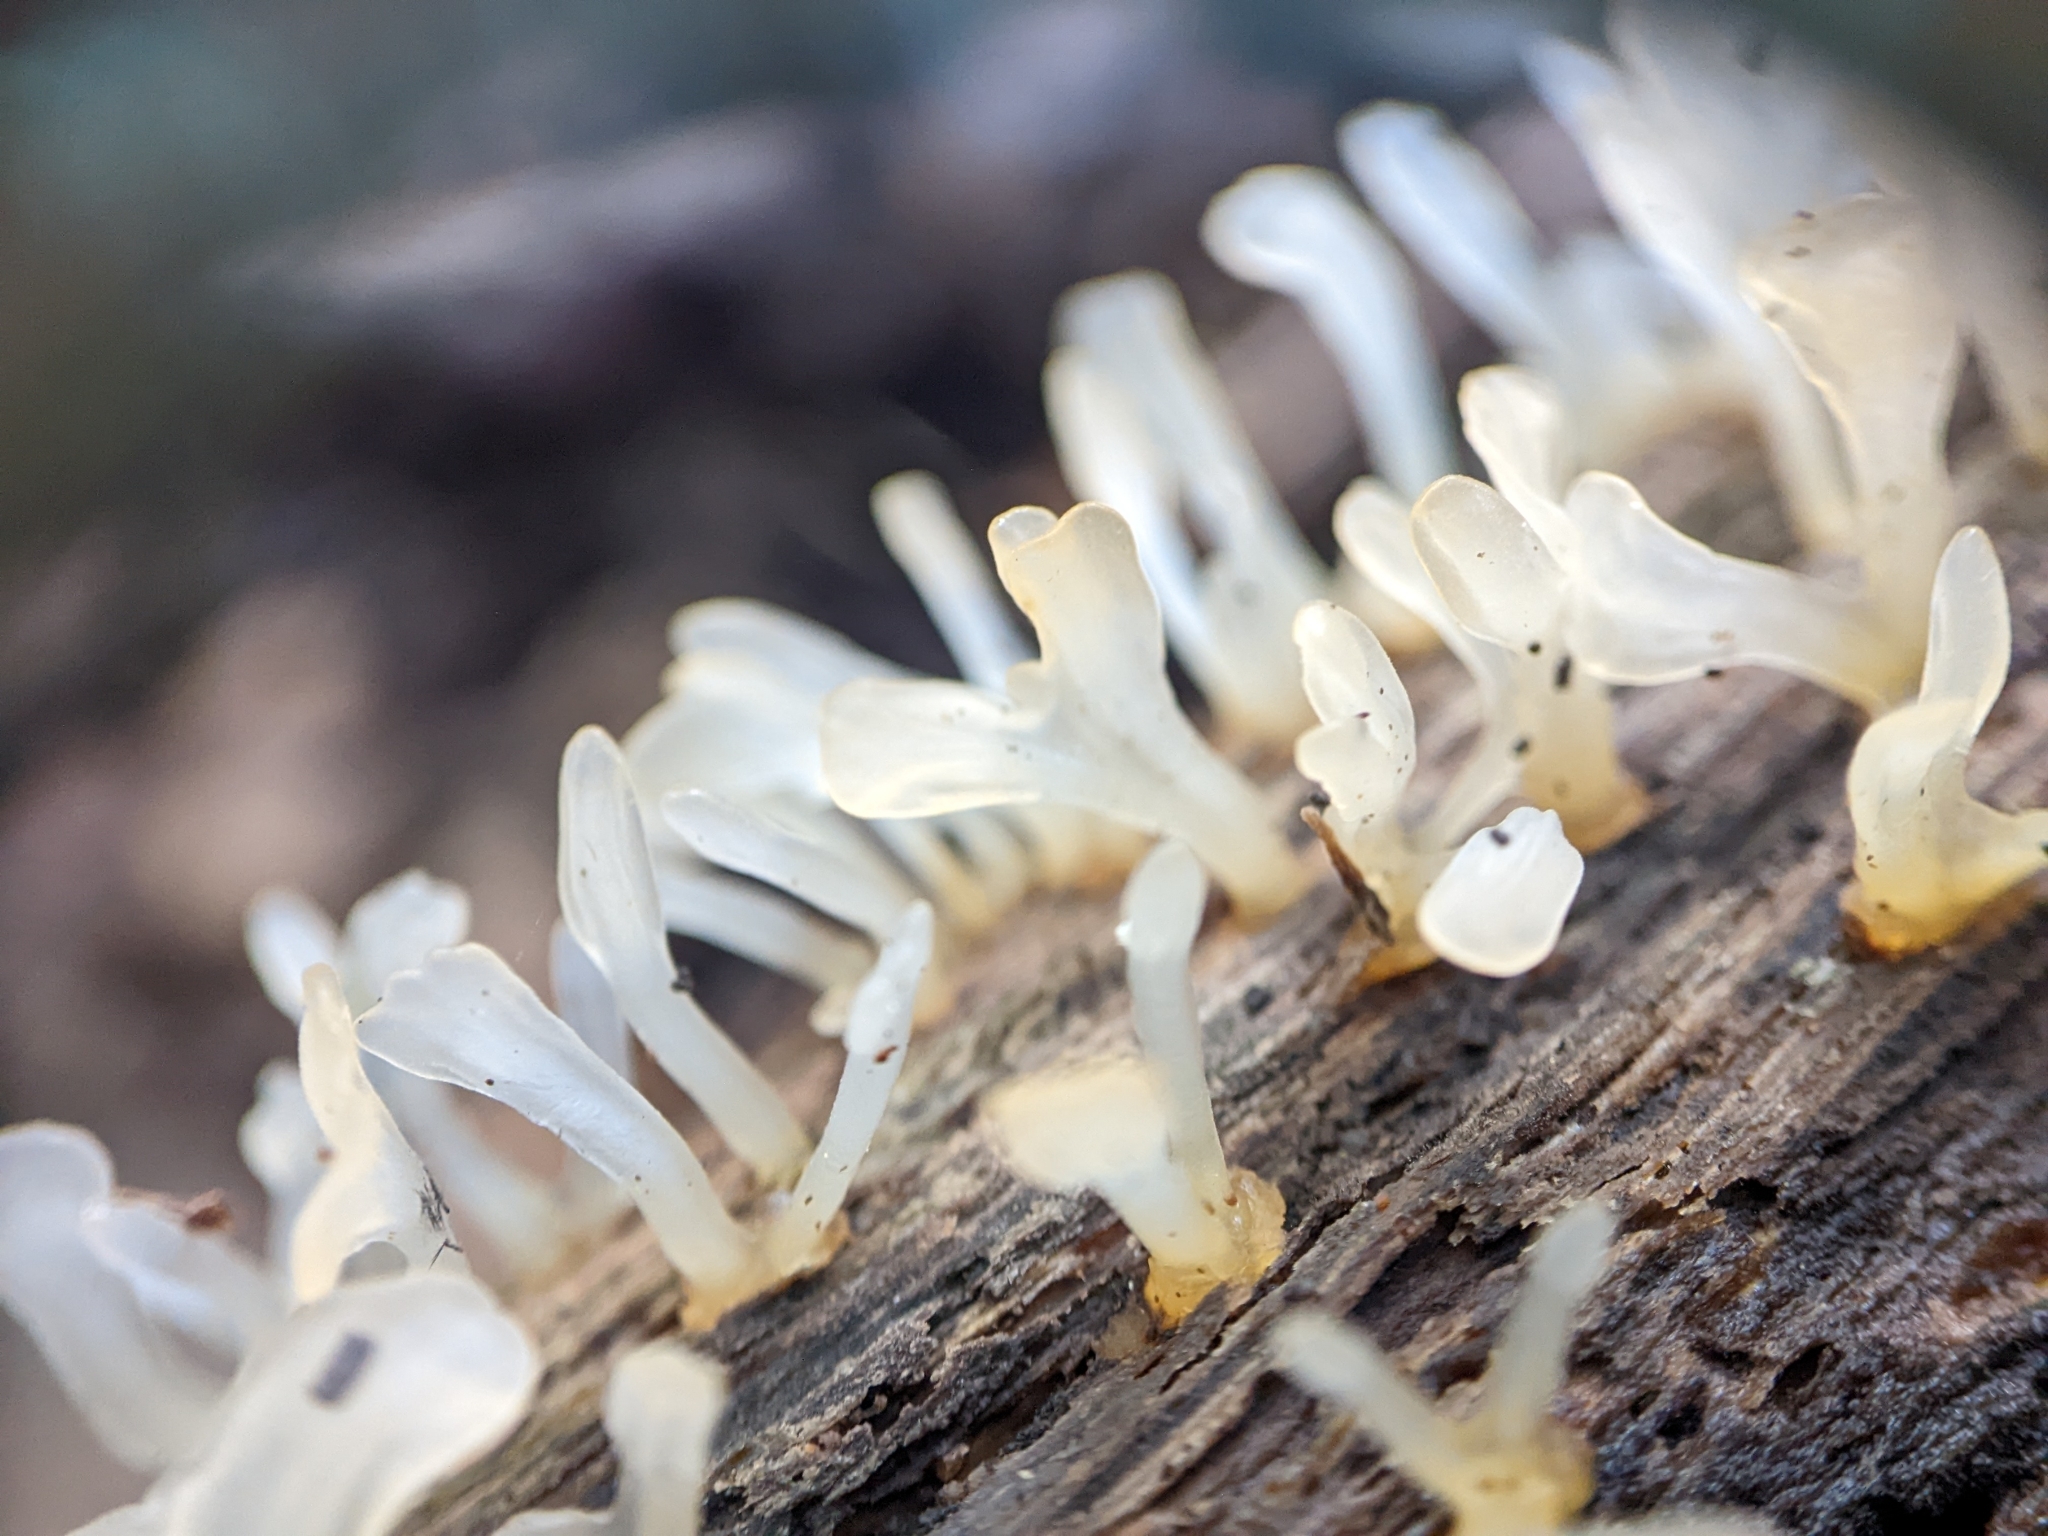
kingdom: Fungi
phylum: Basidiomycota
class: Dacrymycetes
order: Dacrymycetales
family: Dacrymycetaceae
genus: Calocera
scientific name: Calocera pallidospathulata
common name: Pale stagshorn
